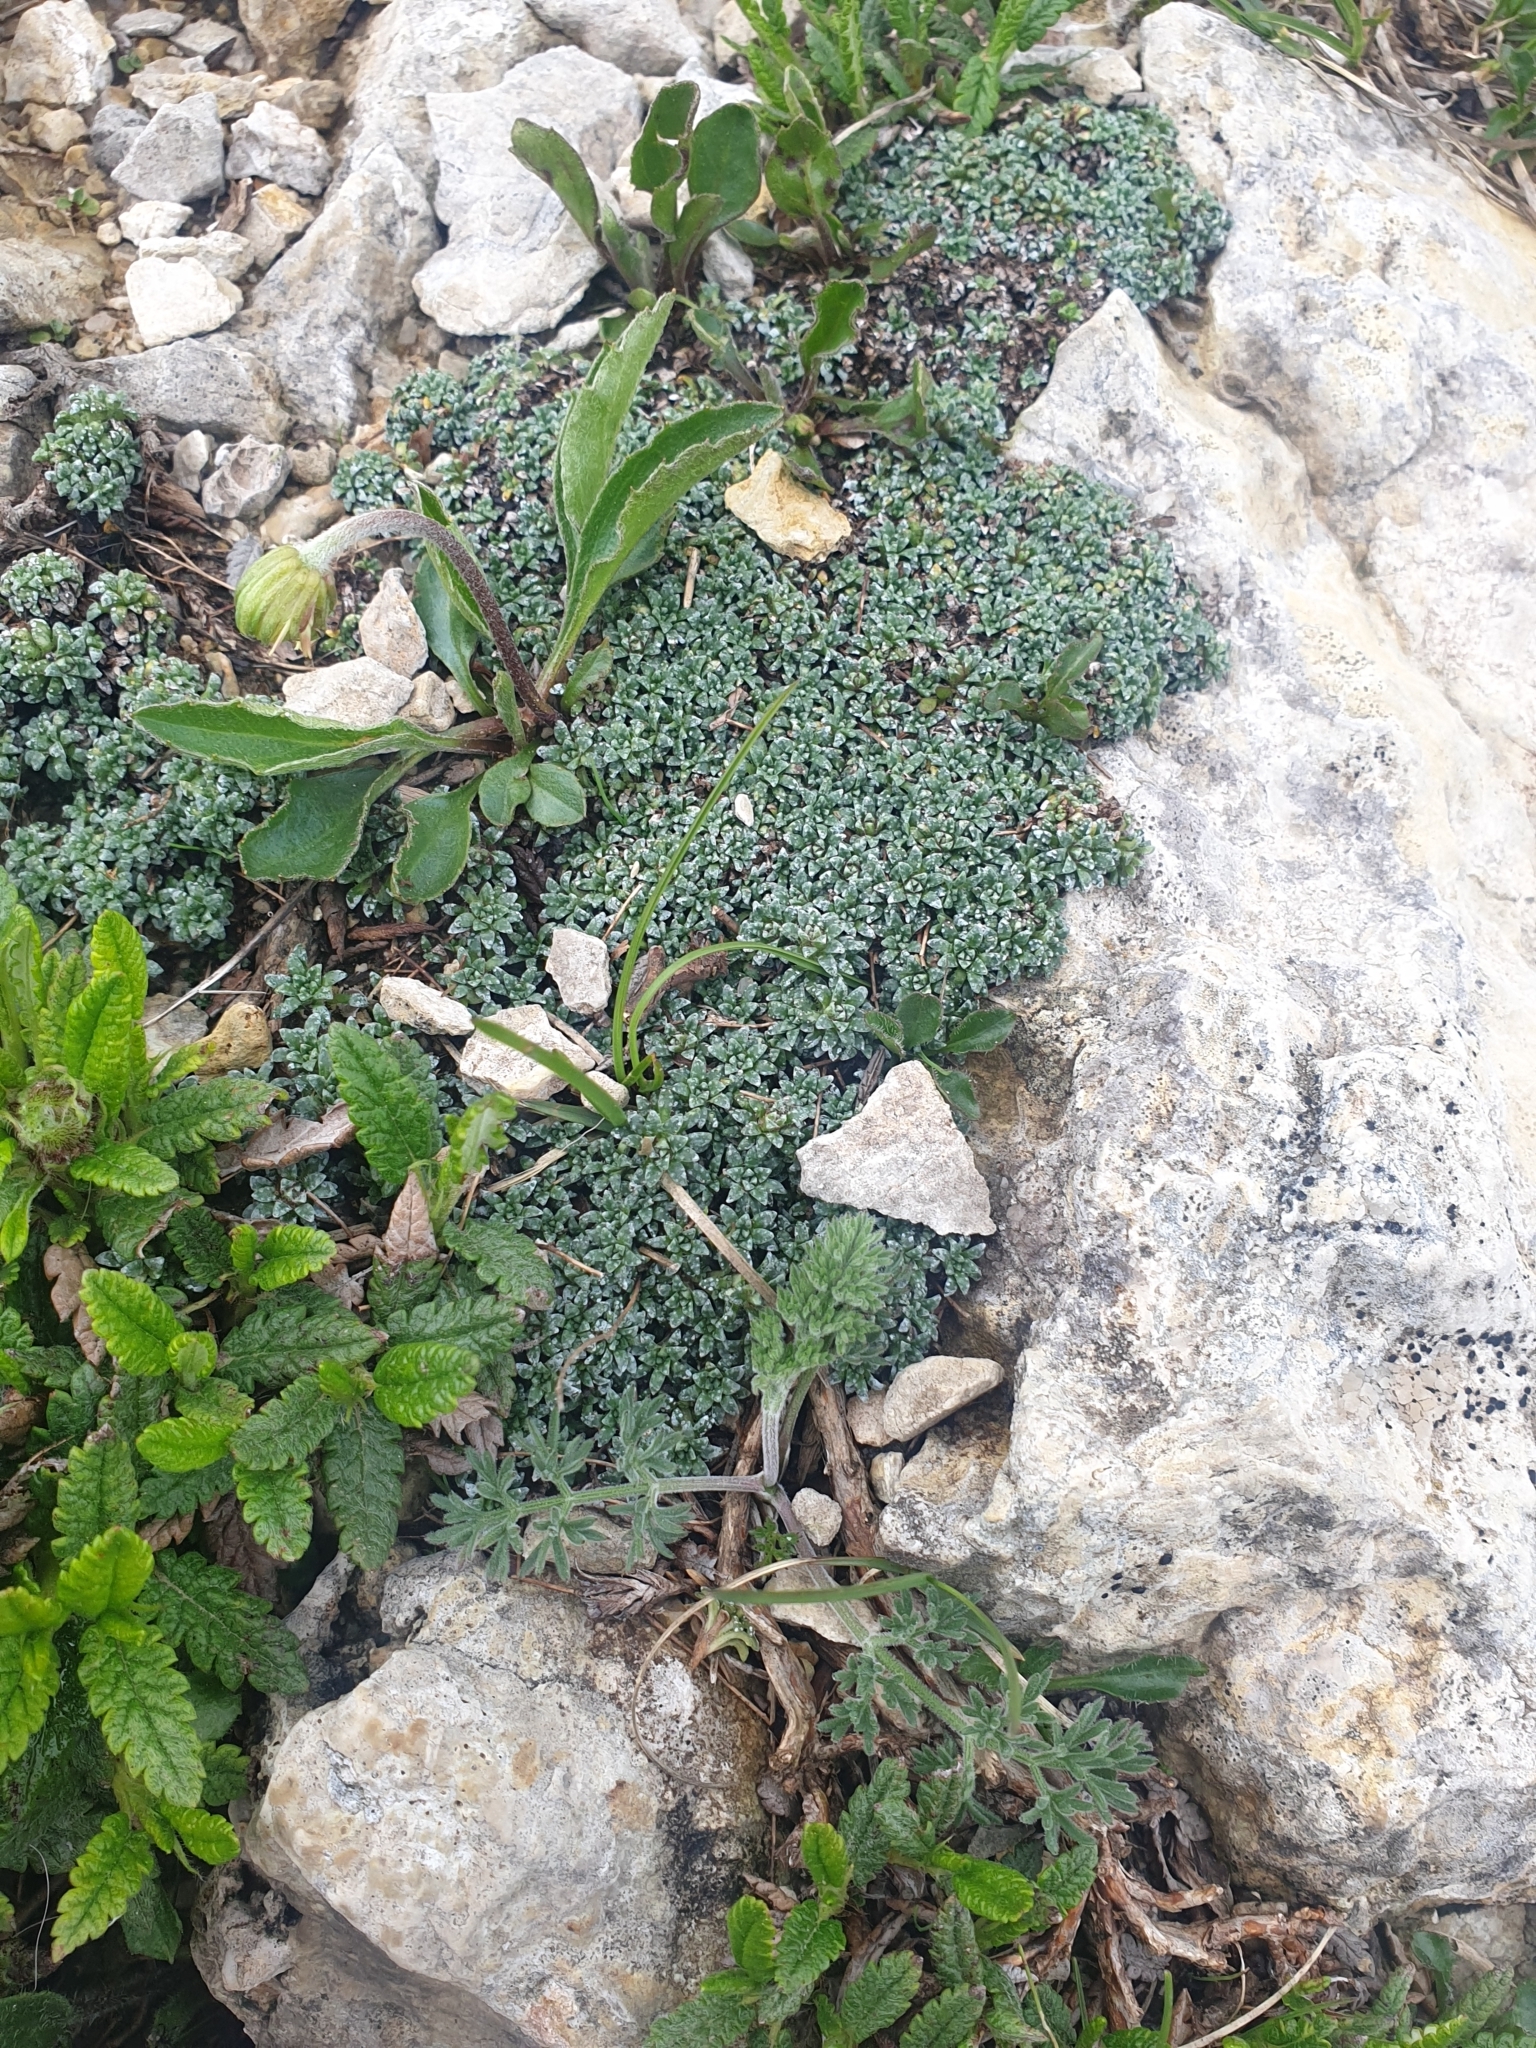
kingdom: Plantae
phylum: Tracheophyta
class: Magnoliopsida
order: Saxifragales
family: Saxifragaceae
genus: Saxifraga
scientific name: Saxifraga caesia
